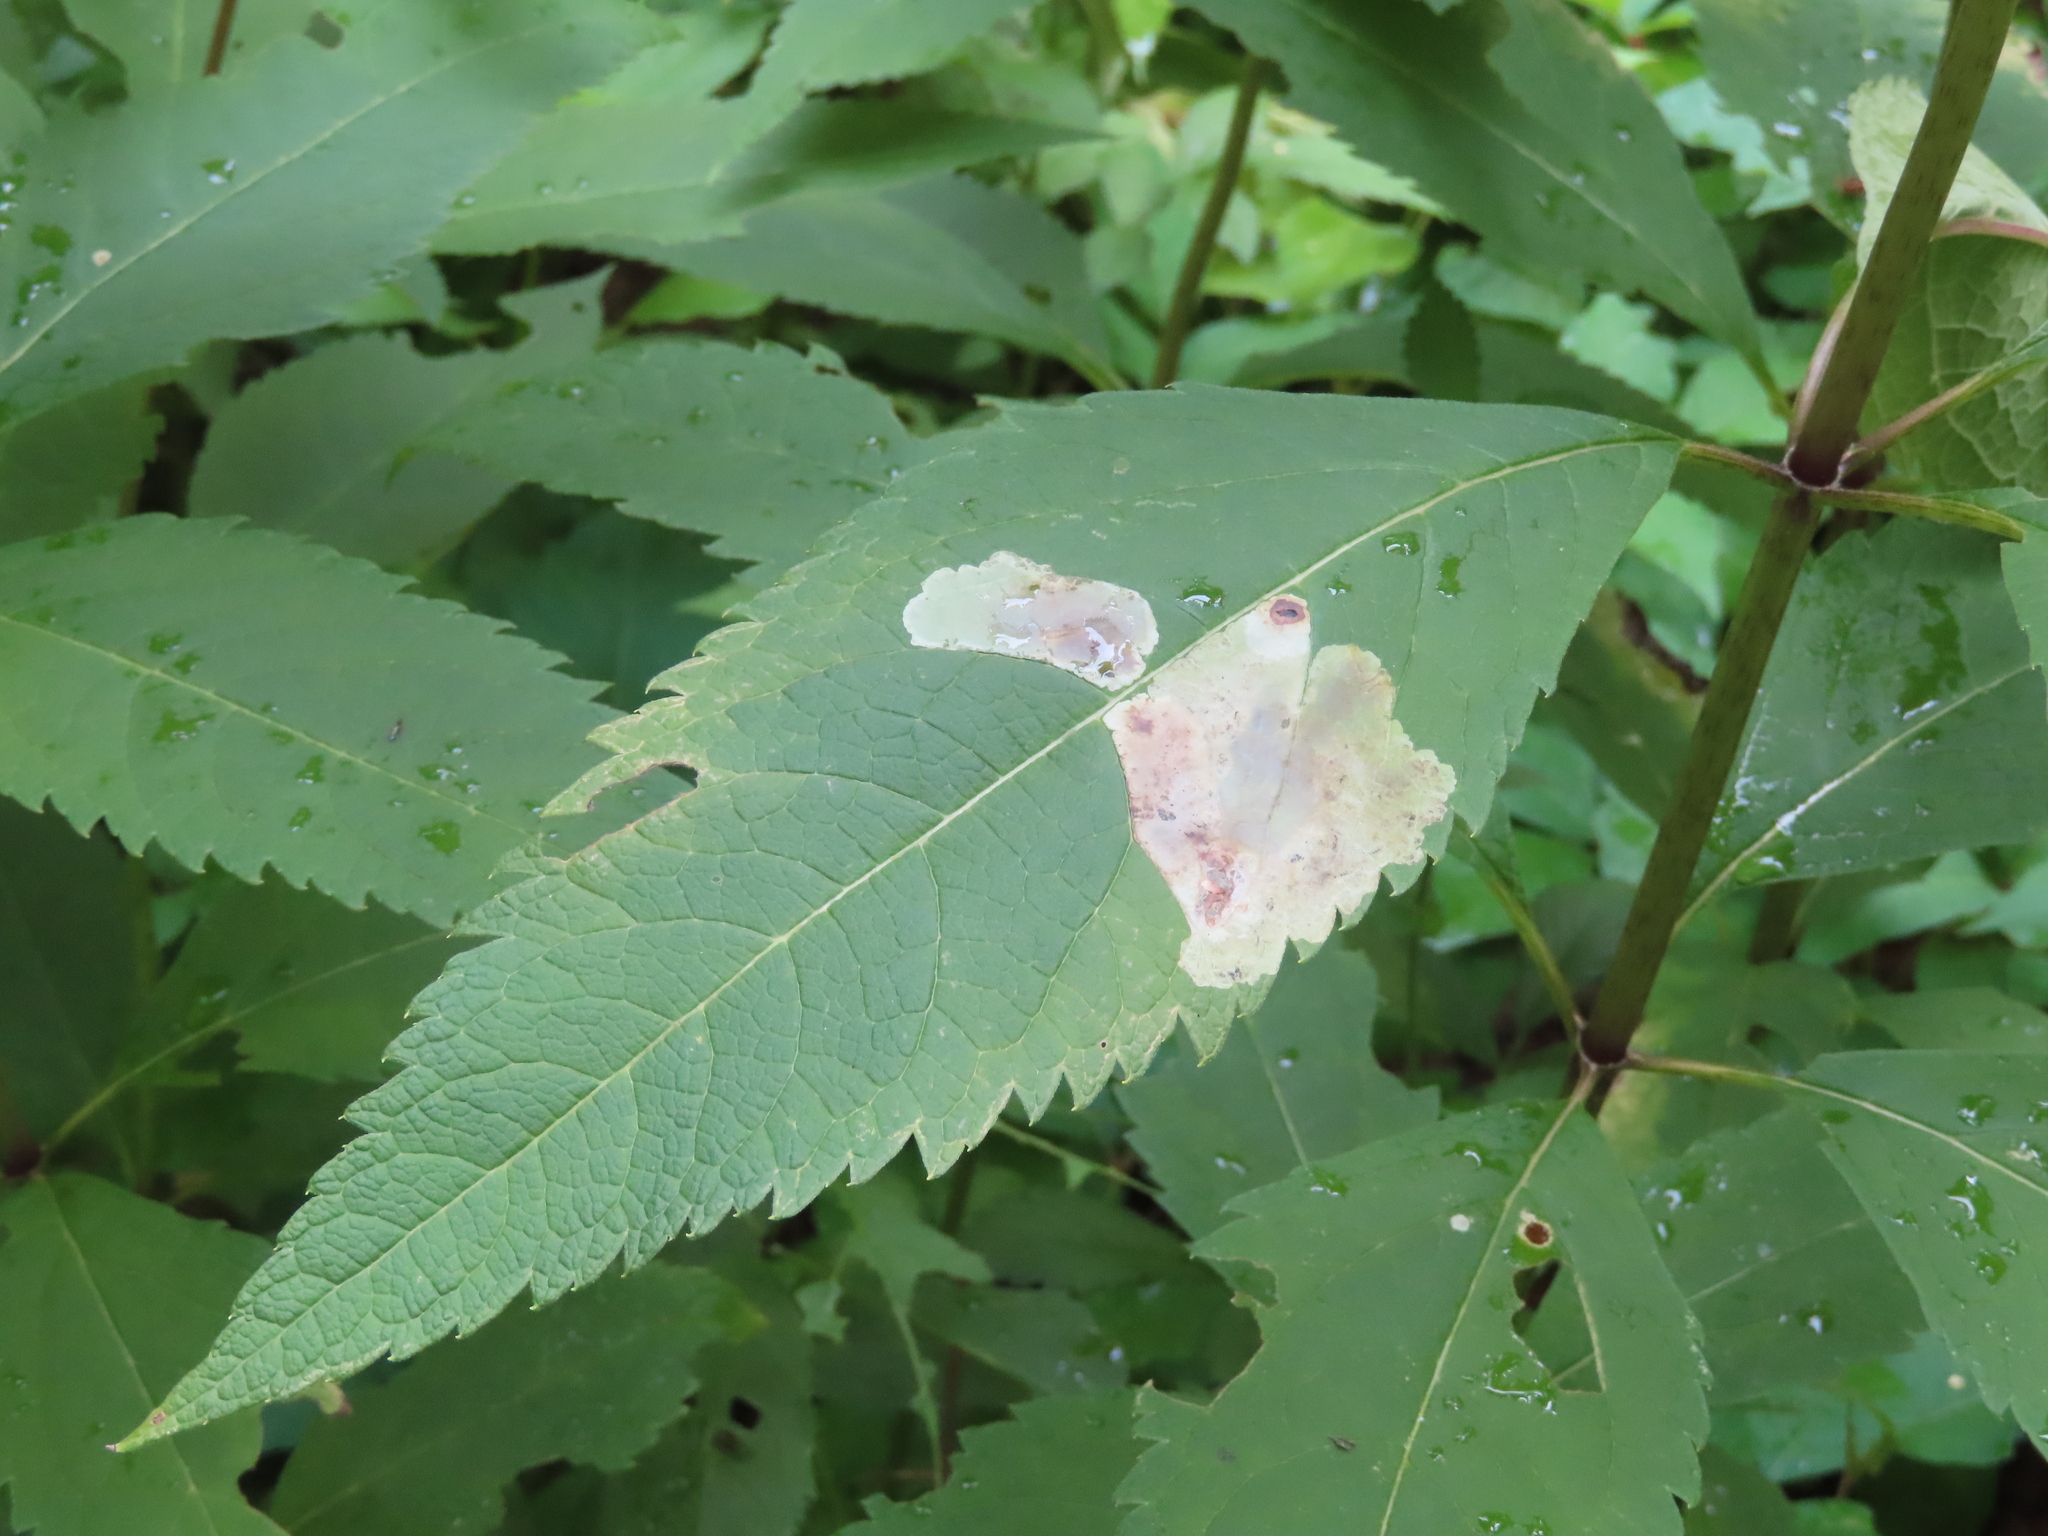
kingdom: Animalia
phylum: Arthropoda
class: Insecta
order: Diptera
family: Agromyzidae
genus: Calycomyza
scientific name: Calycomyza flavinotum
